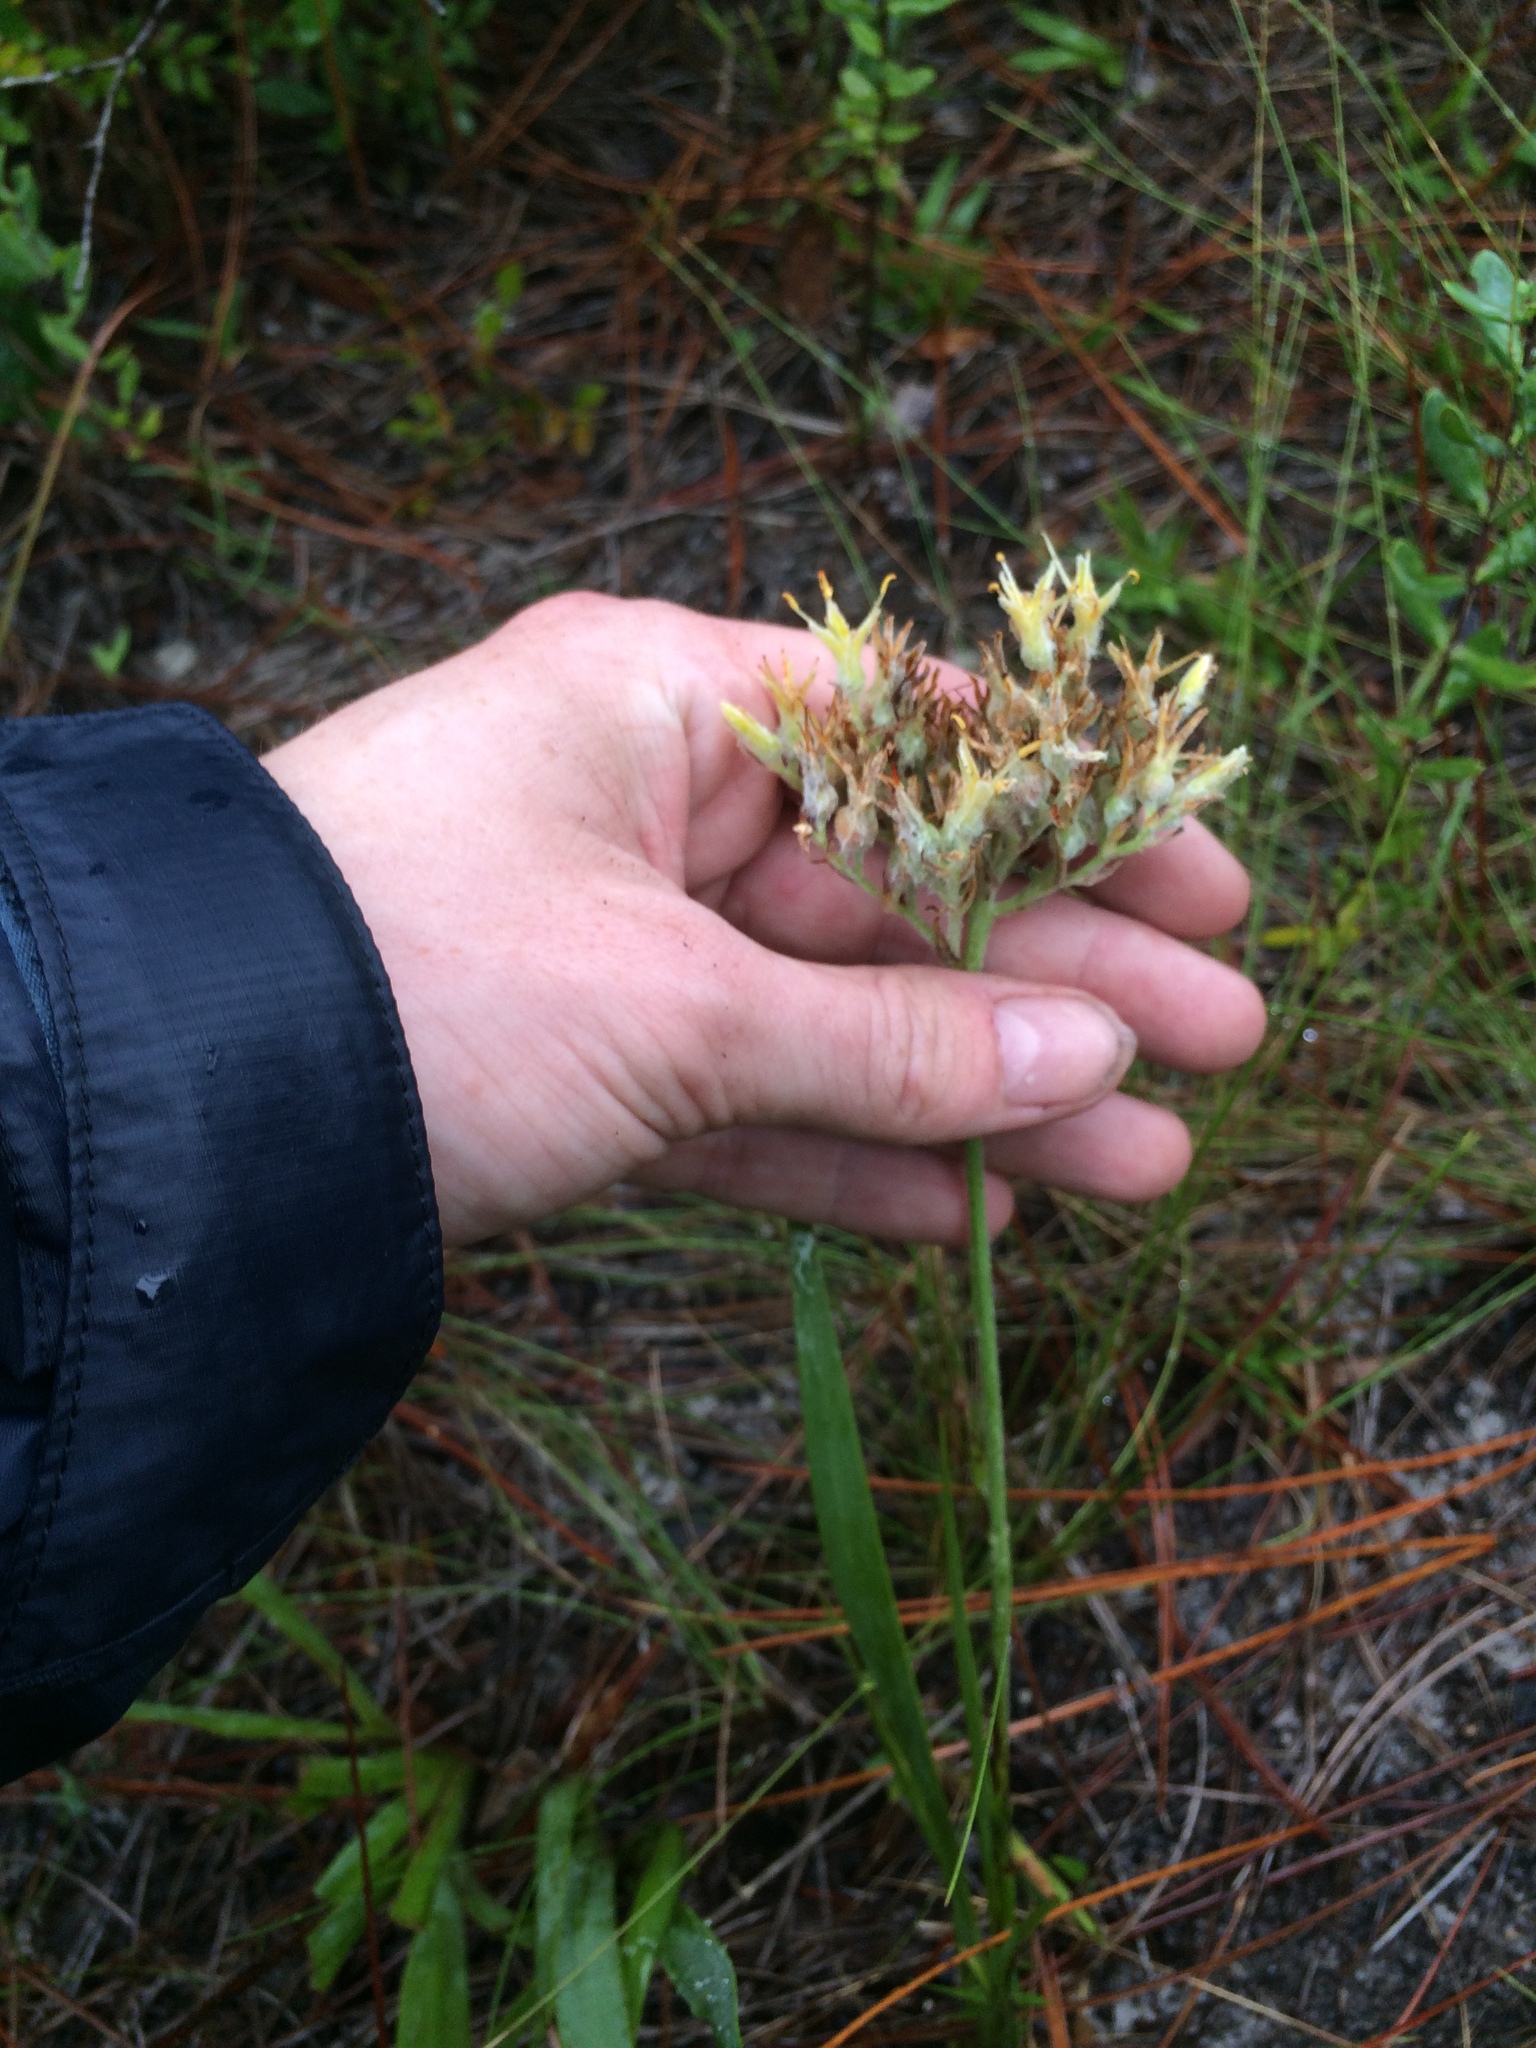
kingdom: Plantae
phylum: Tracheophyta
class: Liliopsida
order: Commelinales
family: Haemodoraceae
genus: Lachnanthes
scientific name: Lachnanthes caroliana
